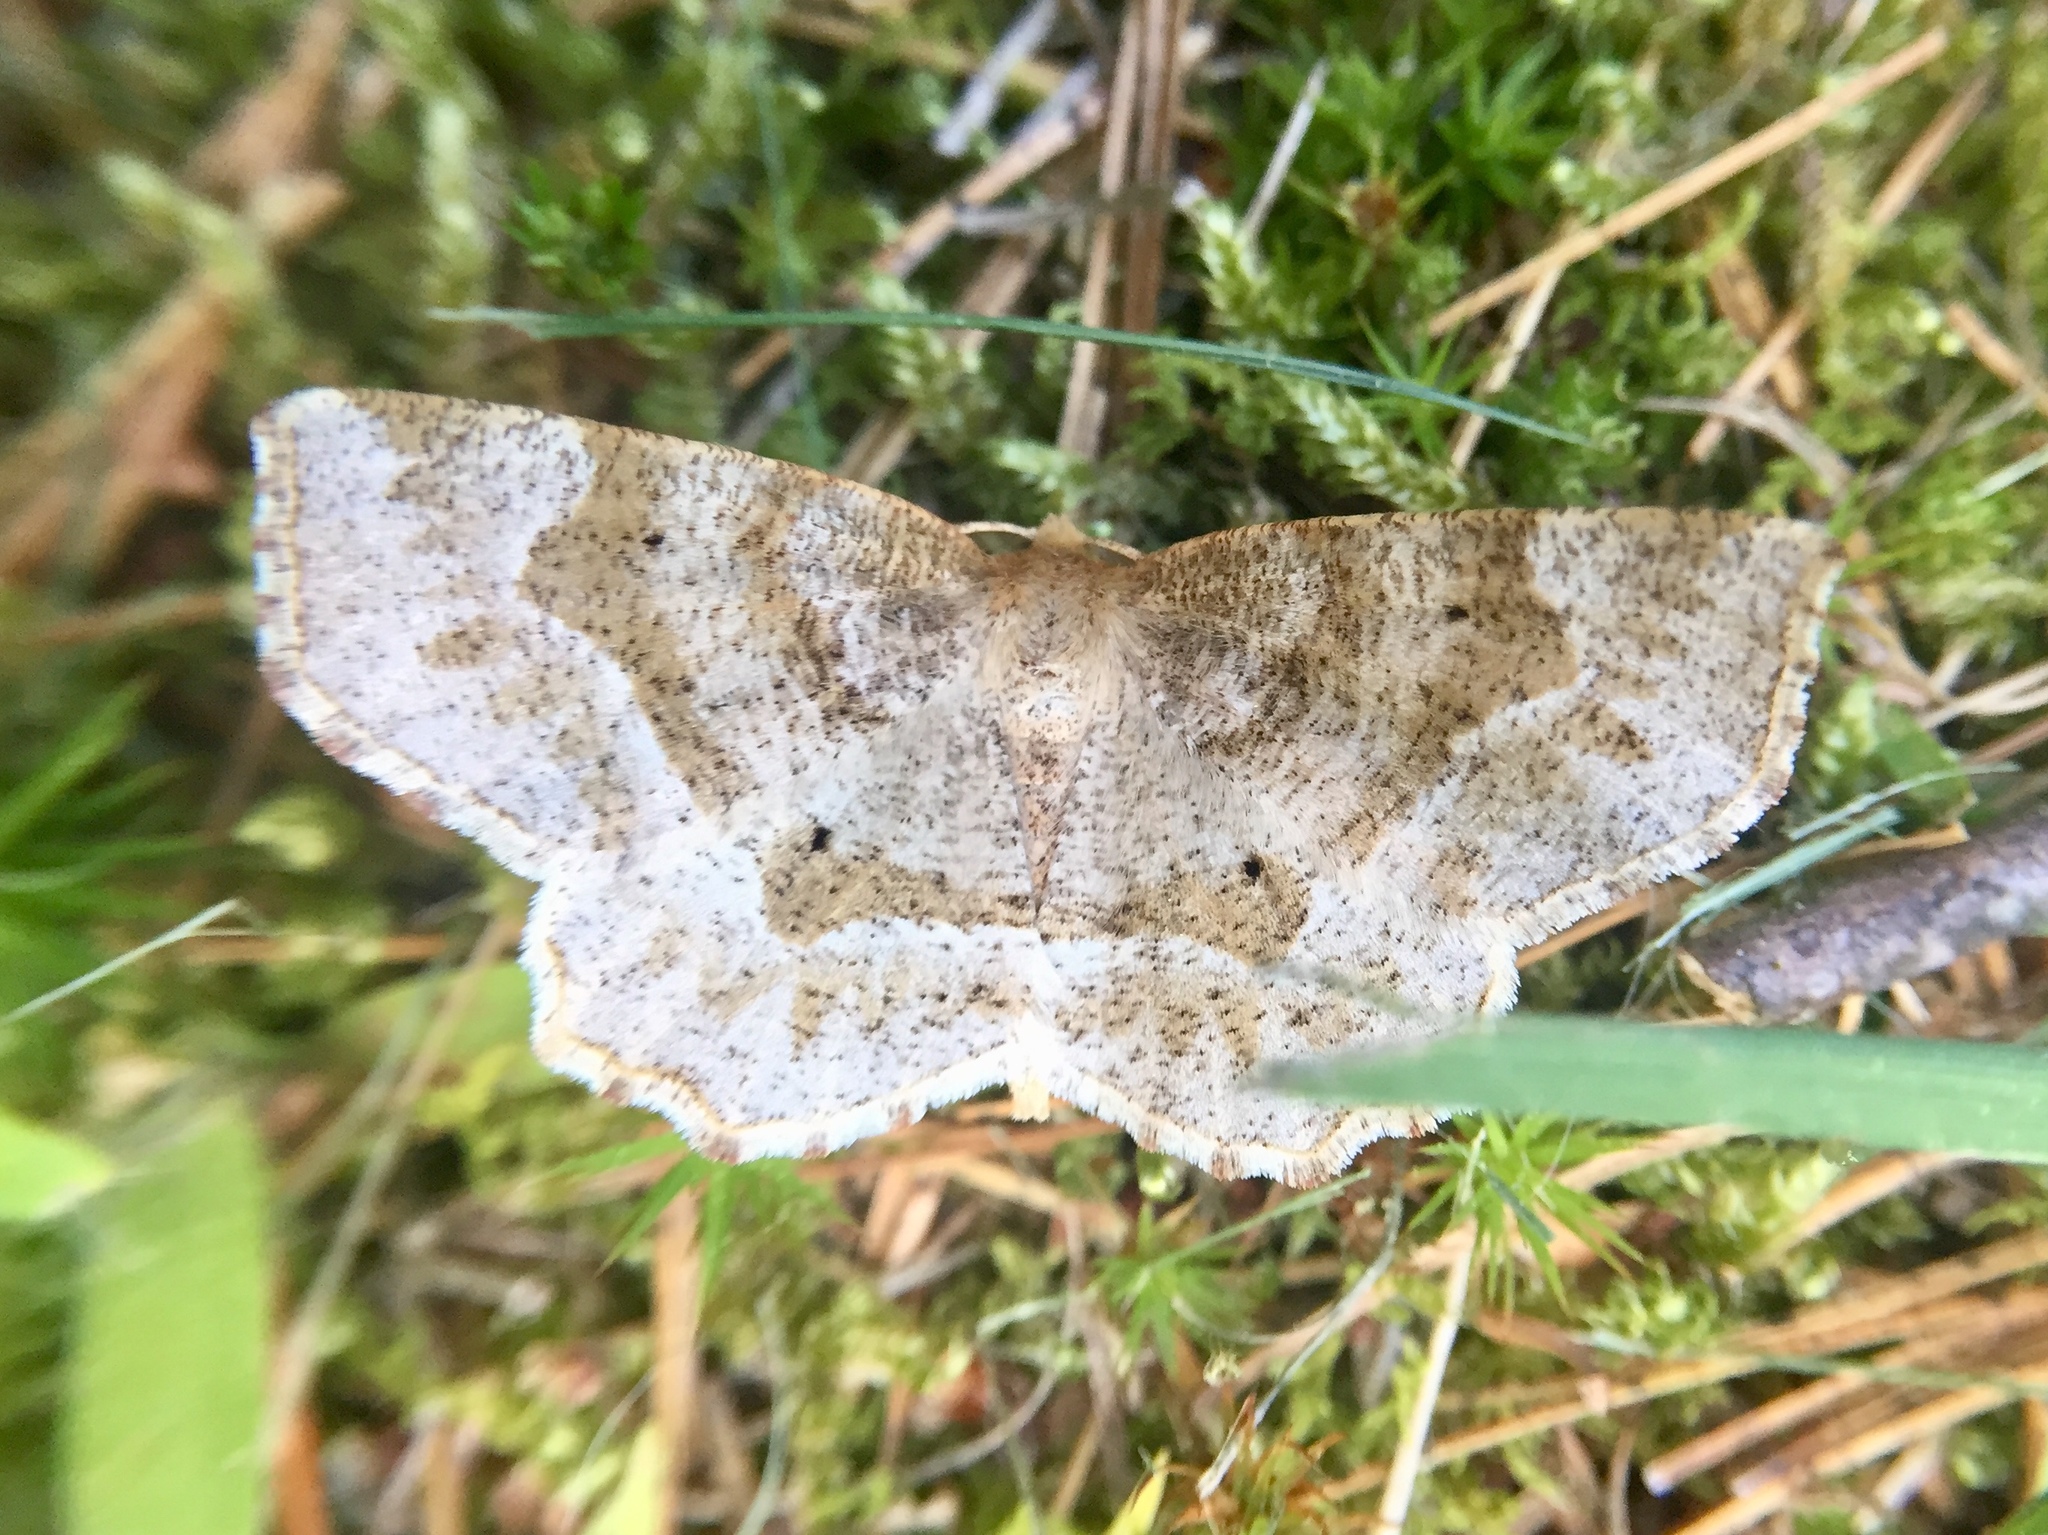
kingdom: Animalia
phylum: Arthropoda
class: Insecta
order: Lepidoptera
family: Geometridae
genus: Metarranthis
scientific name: Metarranthis indeclinata
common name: Pale metarranthis
